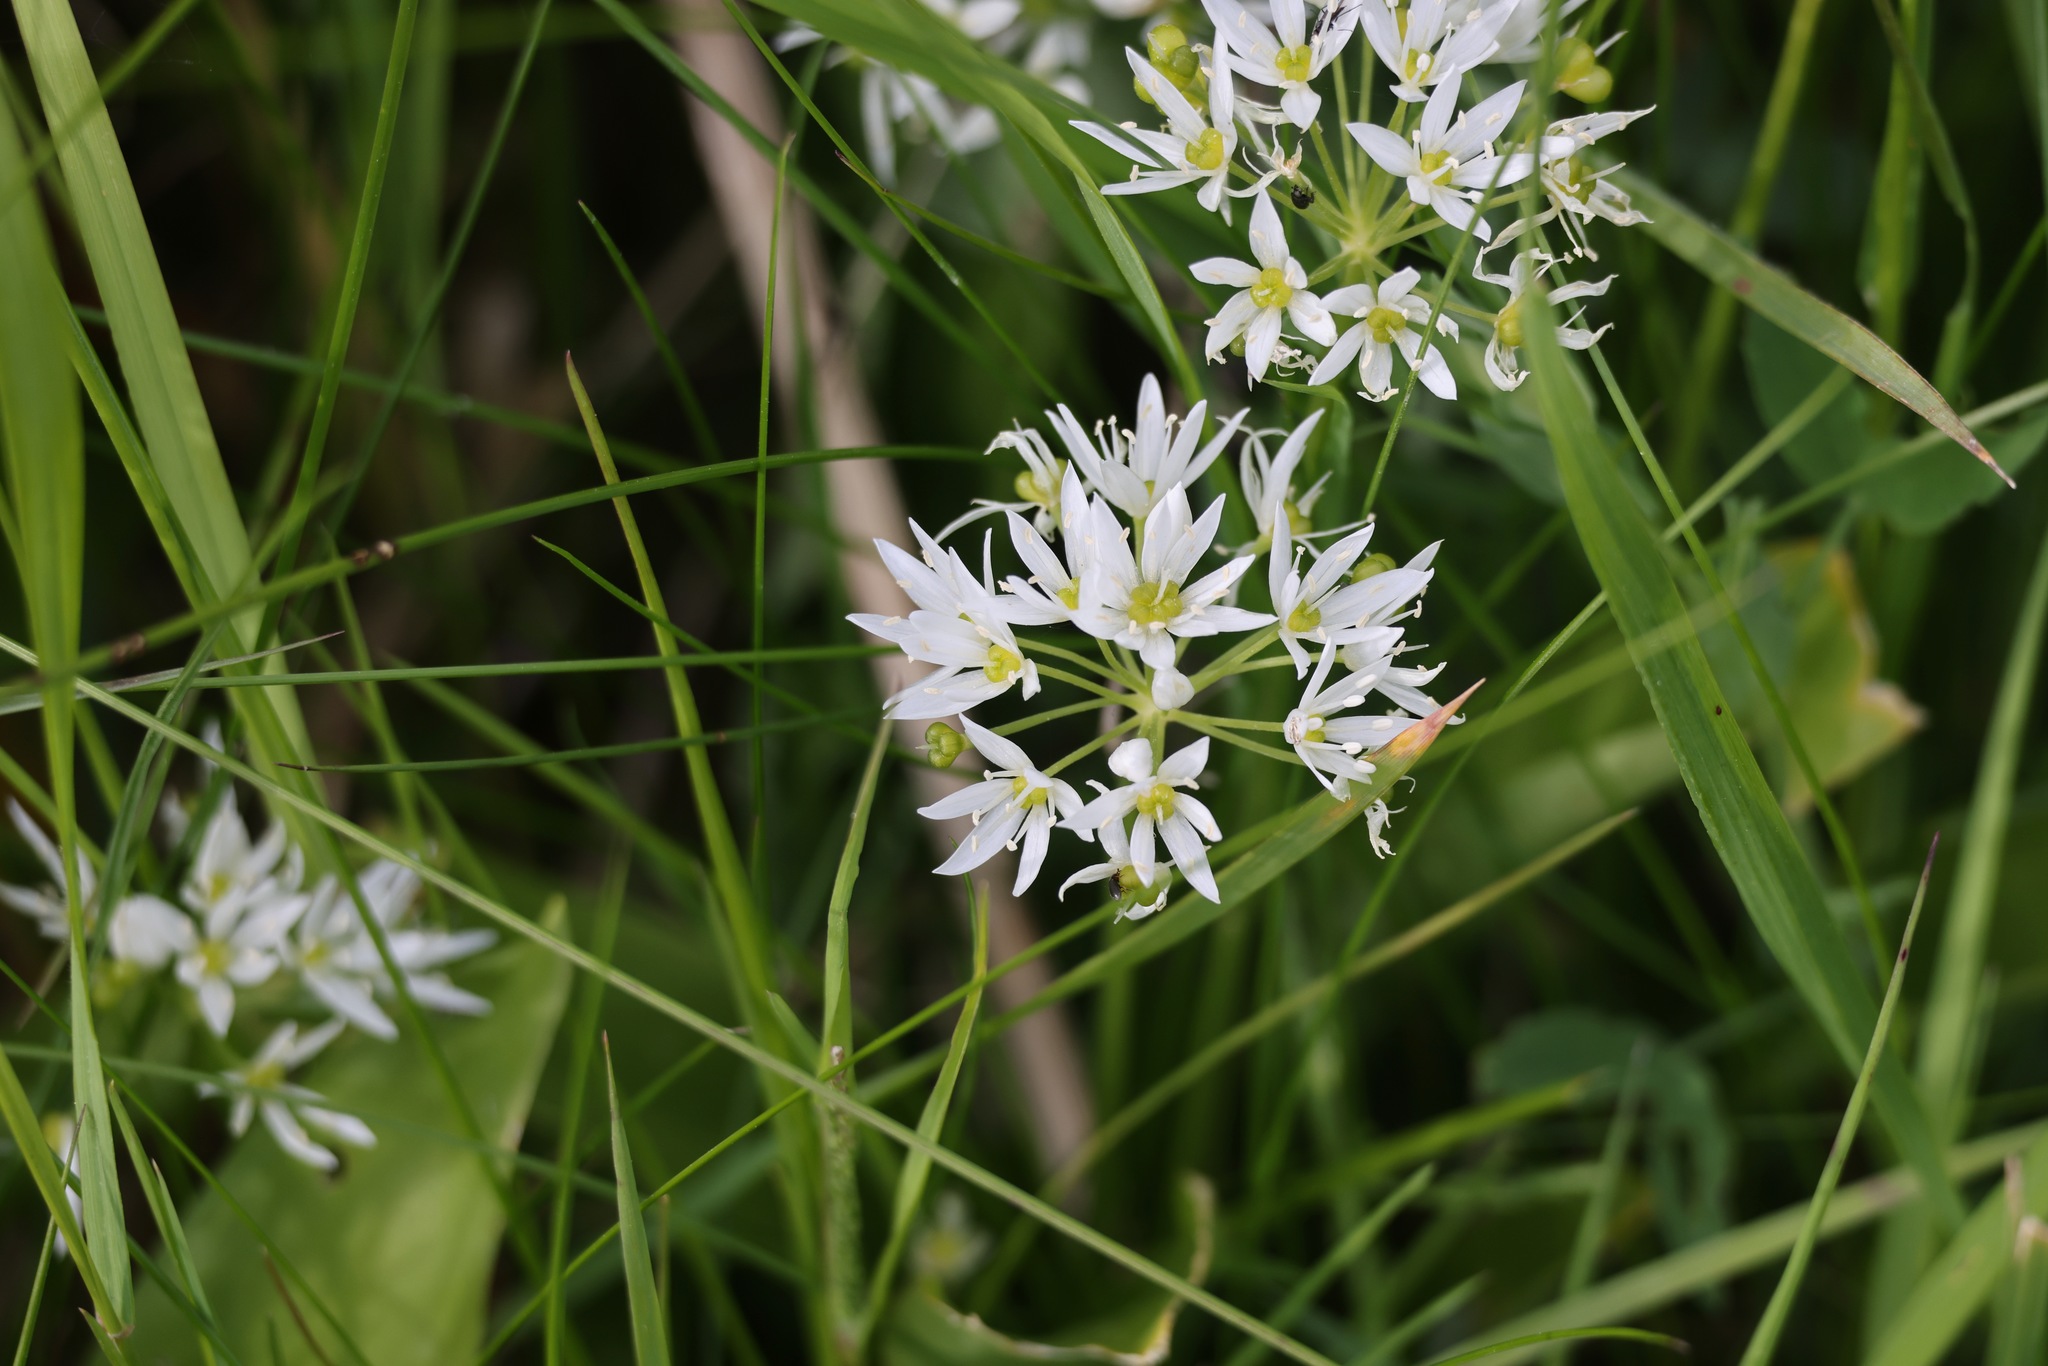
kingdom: Plantae
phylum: Tracheophyta
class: Liliopsida
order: Asparagales
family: Amaryllidaceae
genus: Allium
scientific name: Allium ursinum
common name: Ramsons
